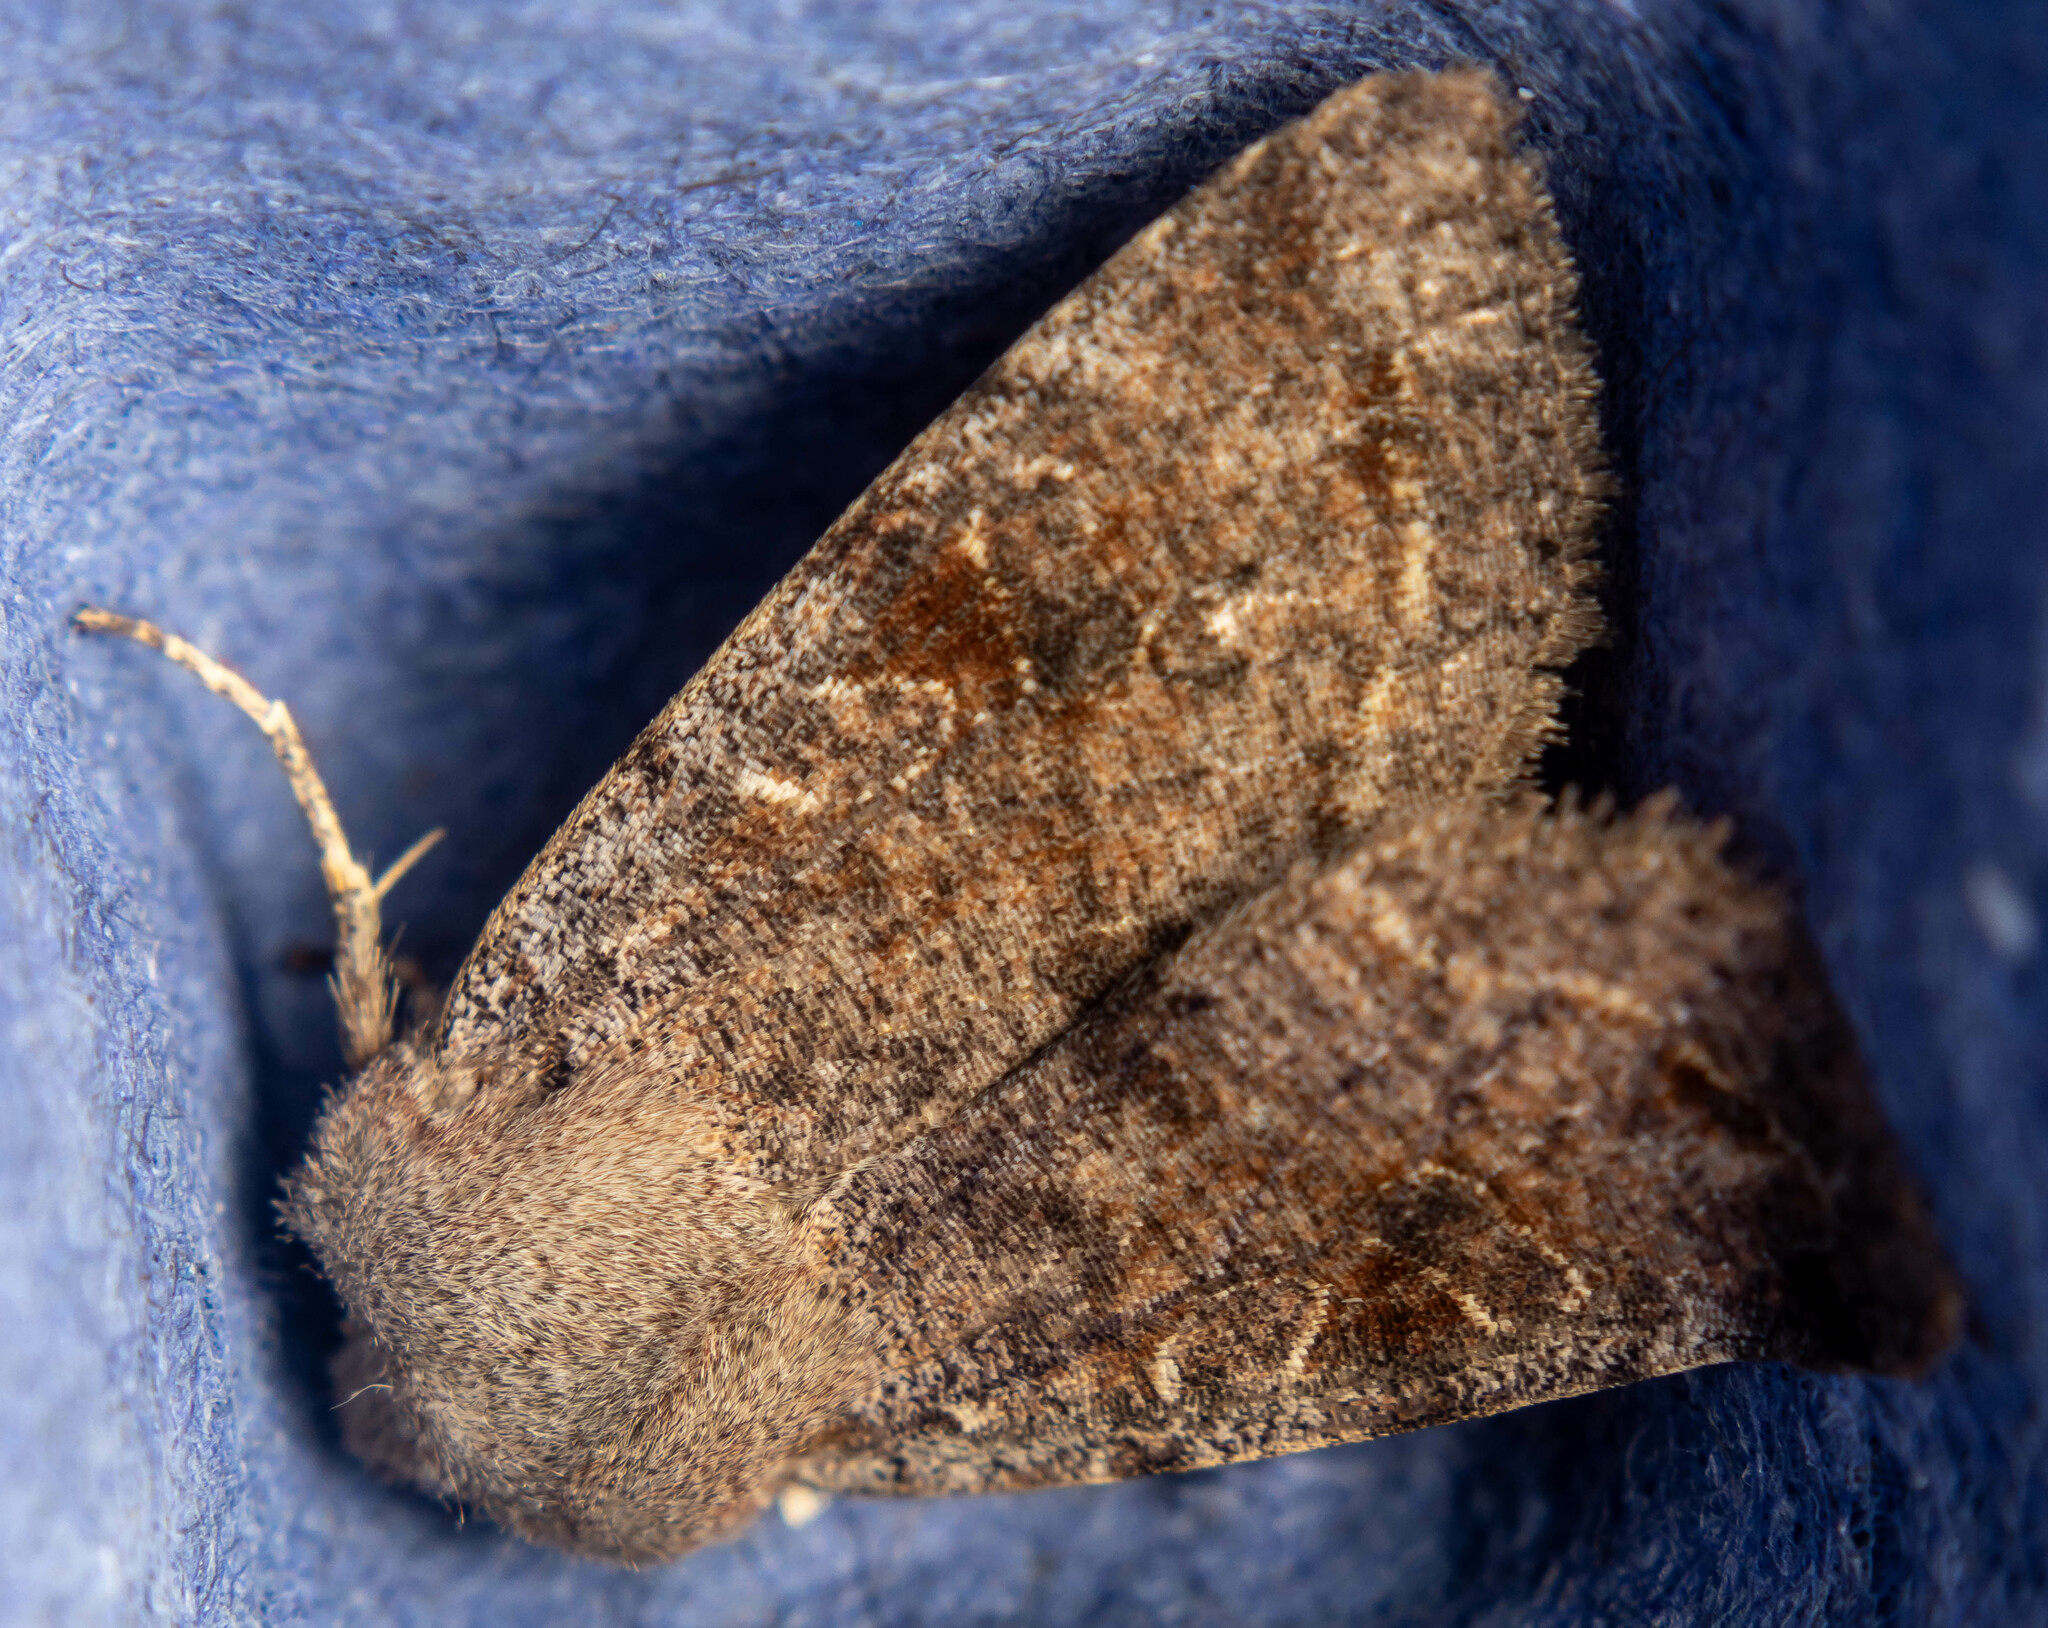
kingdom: Animalia
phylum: Arthropoda
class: Insecta
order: Lepidoptera
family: Noctuidae
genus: Orthosia
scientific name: Orthosia incerta
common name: Clouded drab
